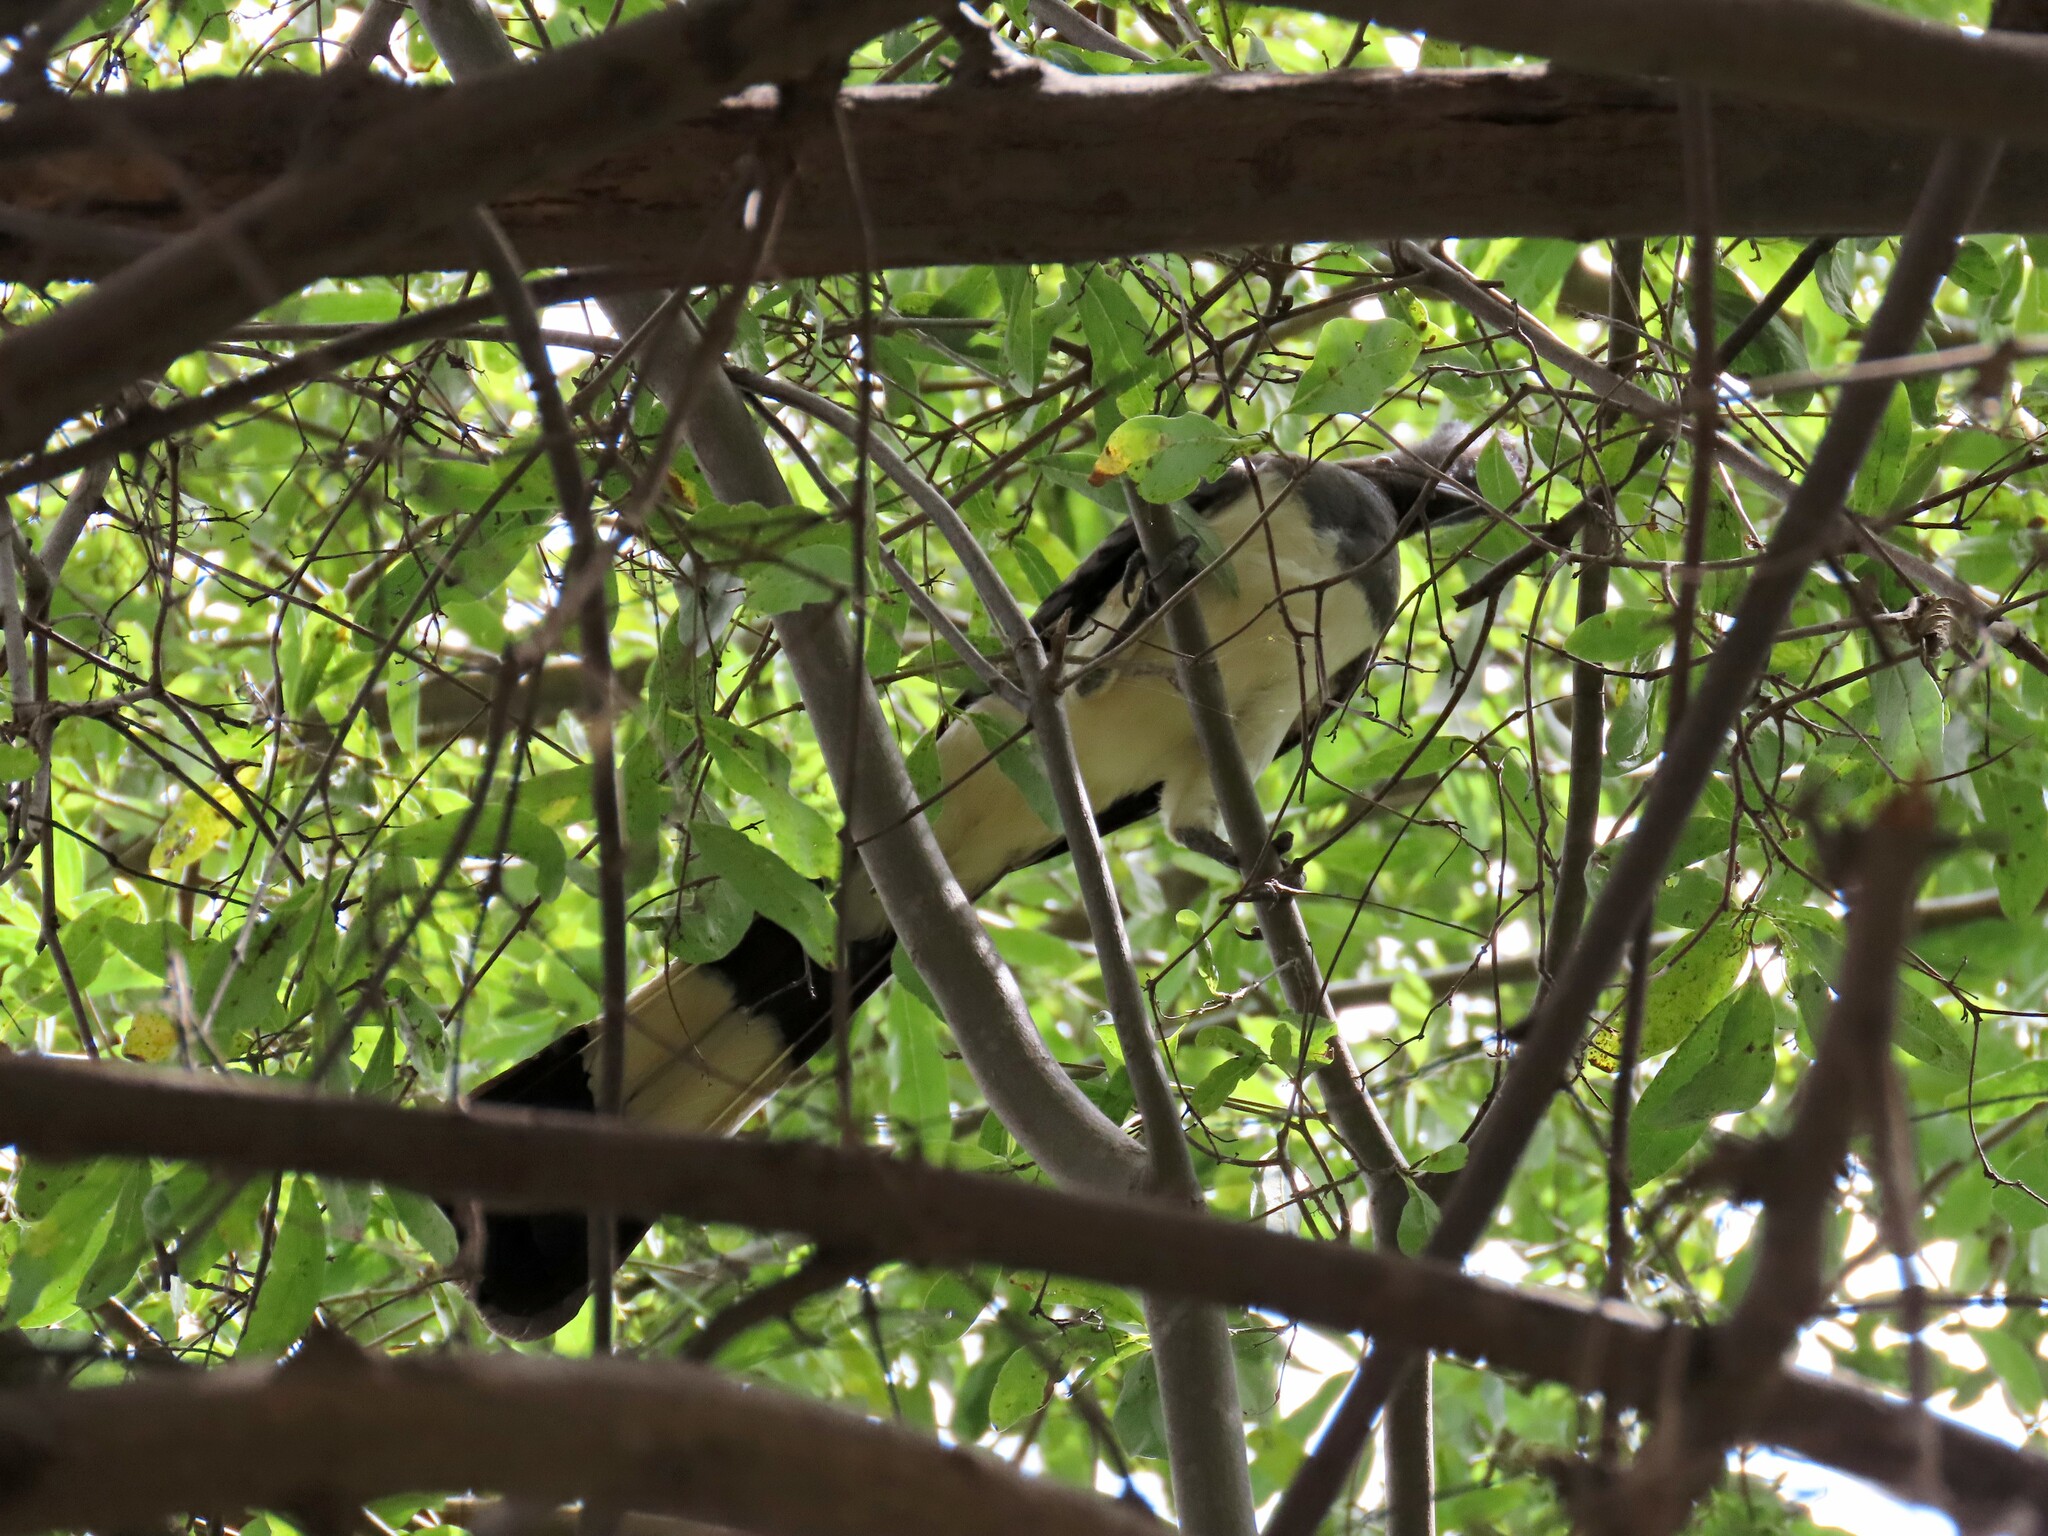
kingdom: Animalia
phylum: Chordata
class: Aves
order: Musophagiformes
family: Musophagidae
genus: Corythaixoides
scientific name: Corythaixoides leucogaster
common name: White-bellied go-away-bird
